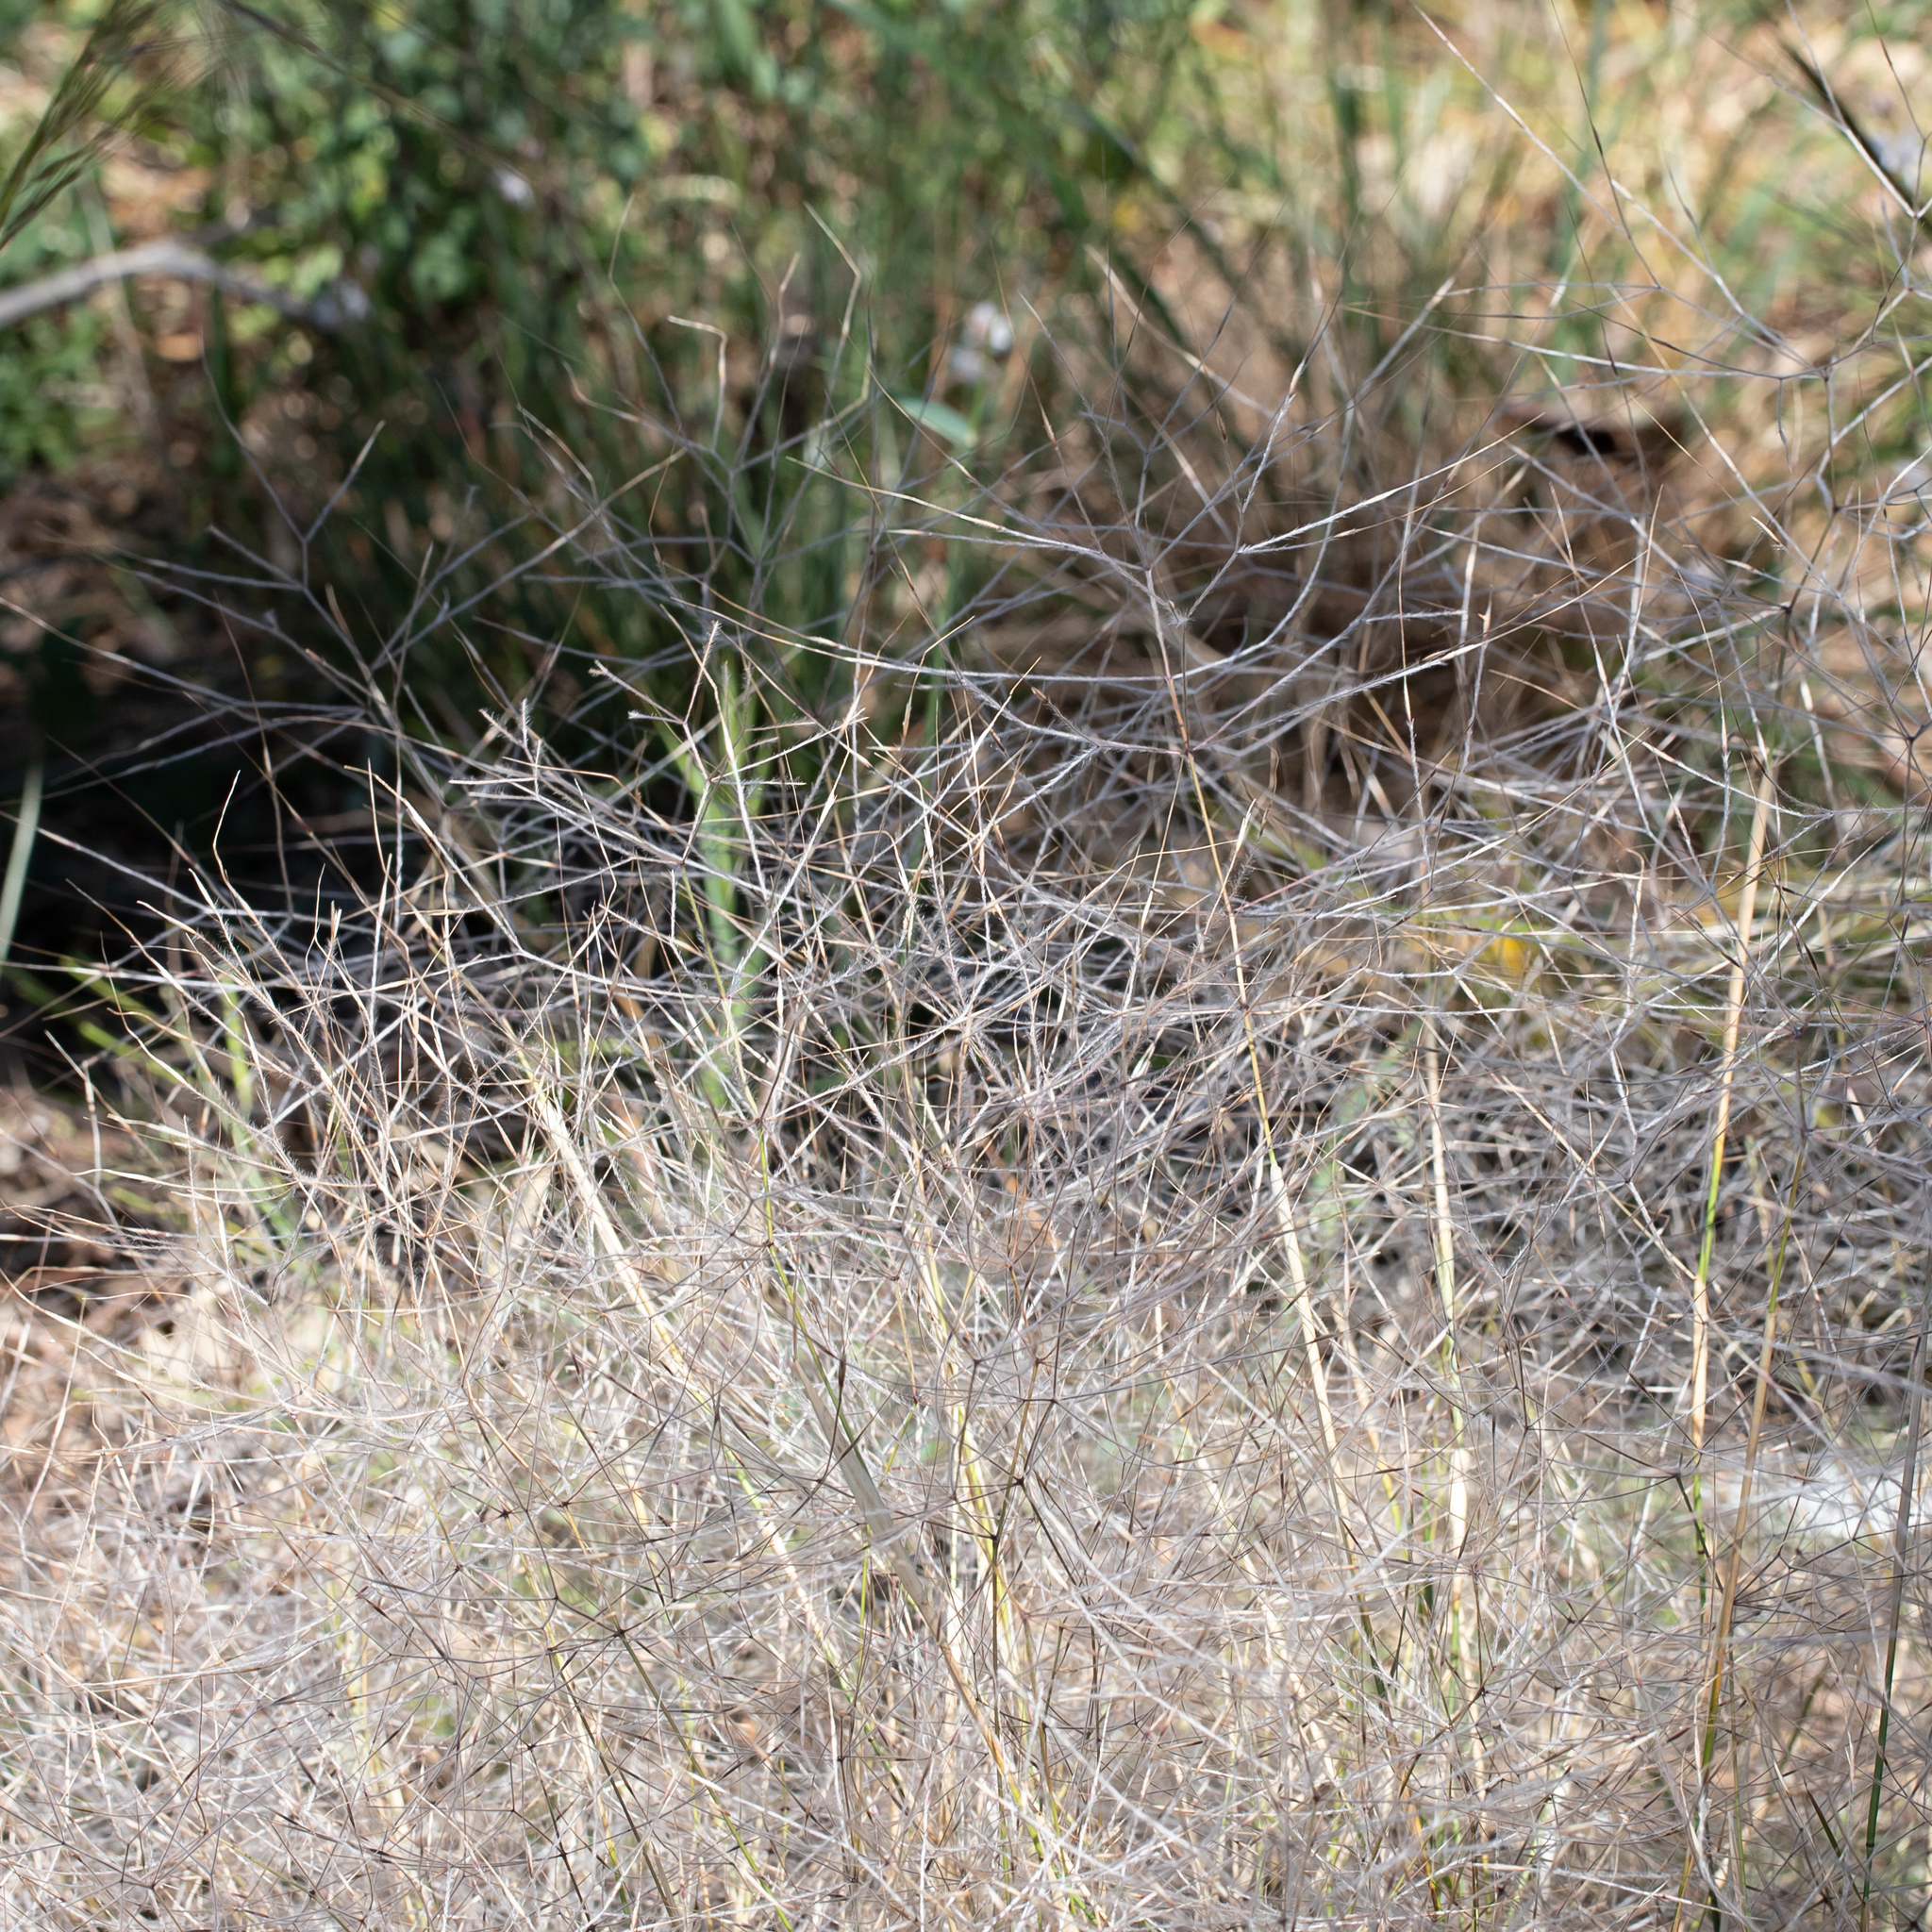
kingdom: Plantae
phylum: Tracheophyta
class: Liliopsida
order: Poales
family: Poaceae
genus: Austrostipa
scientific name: Austrostipa elegantissima
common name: Feather spear grass
